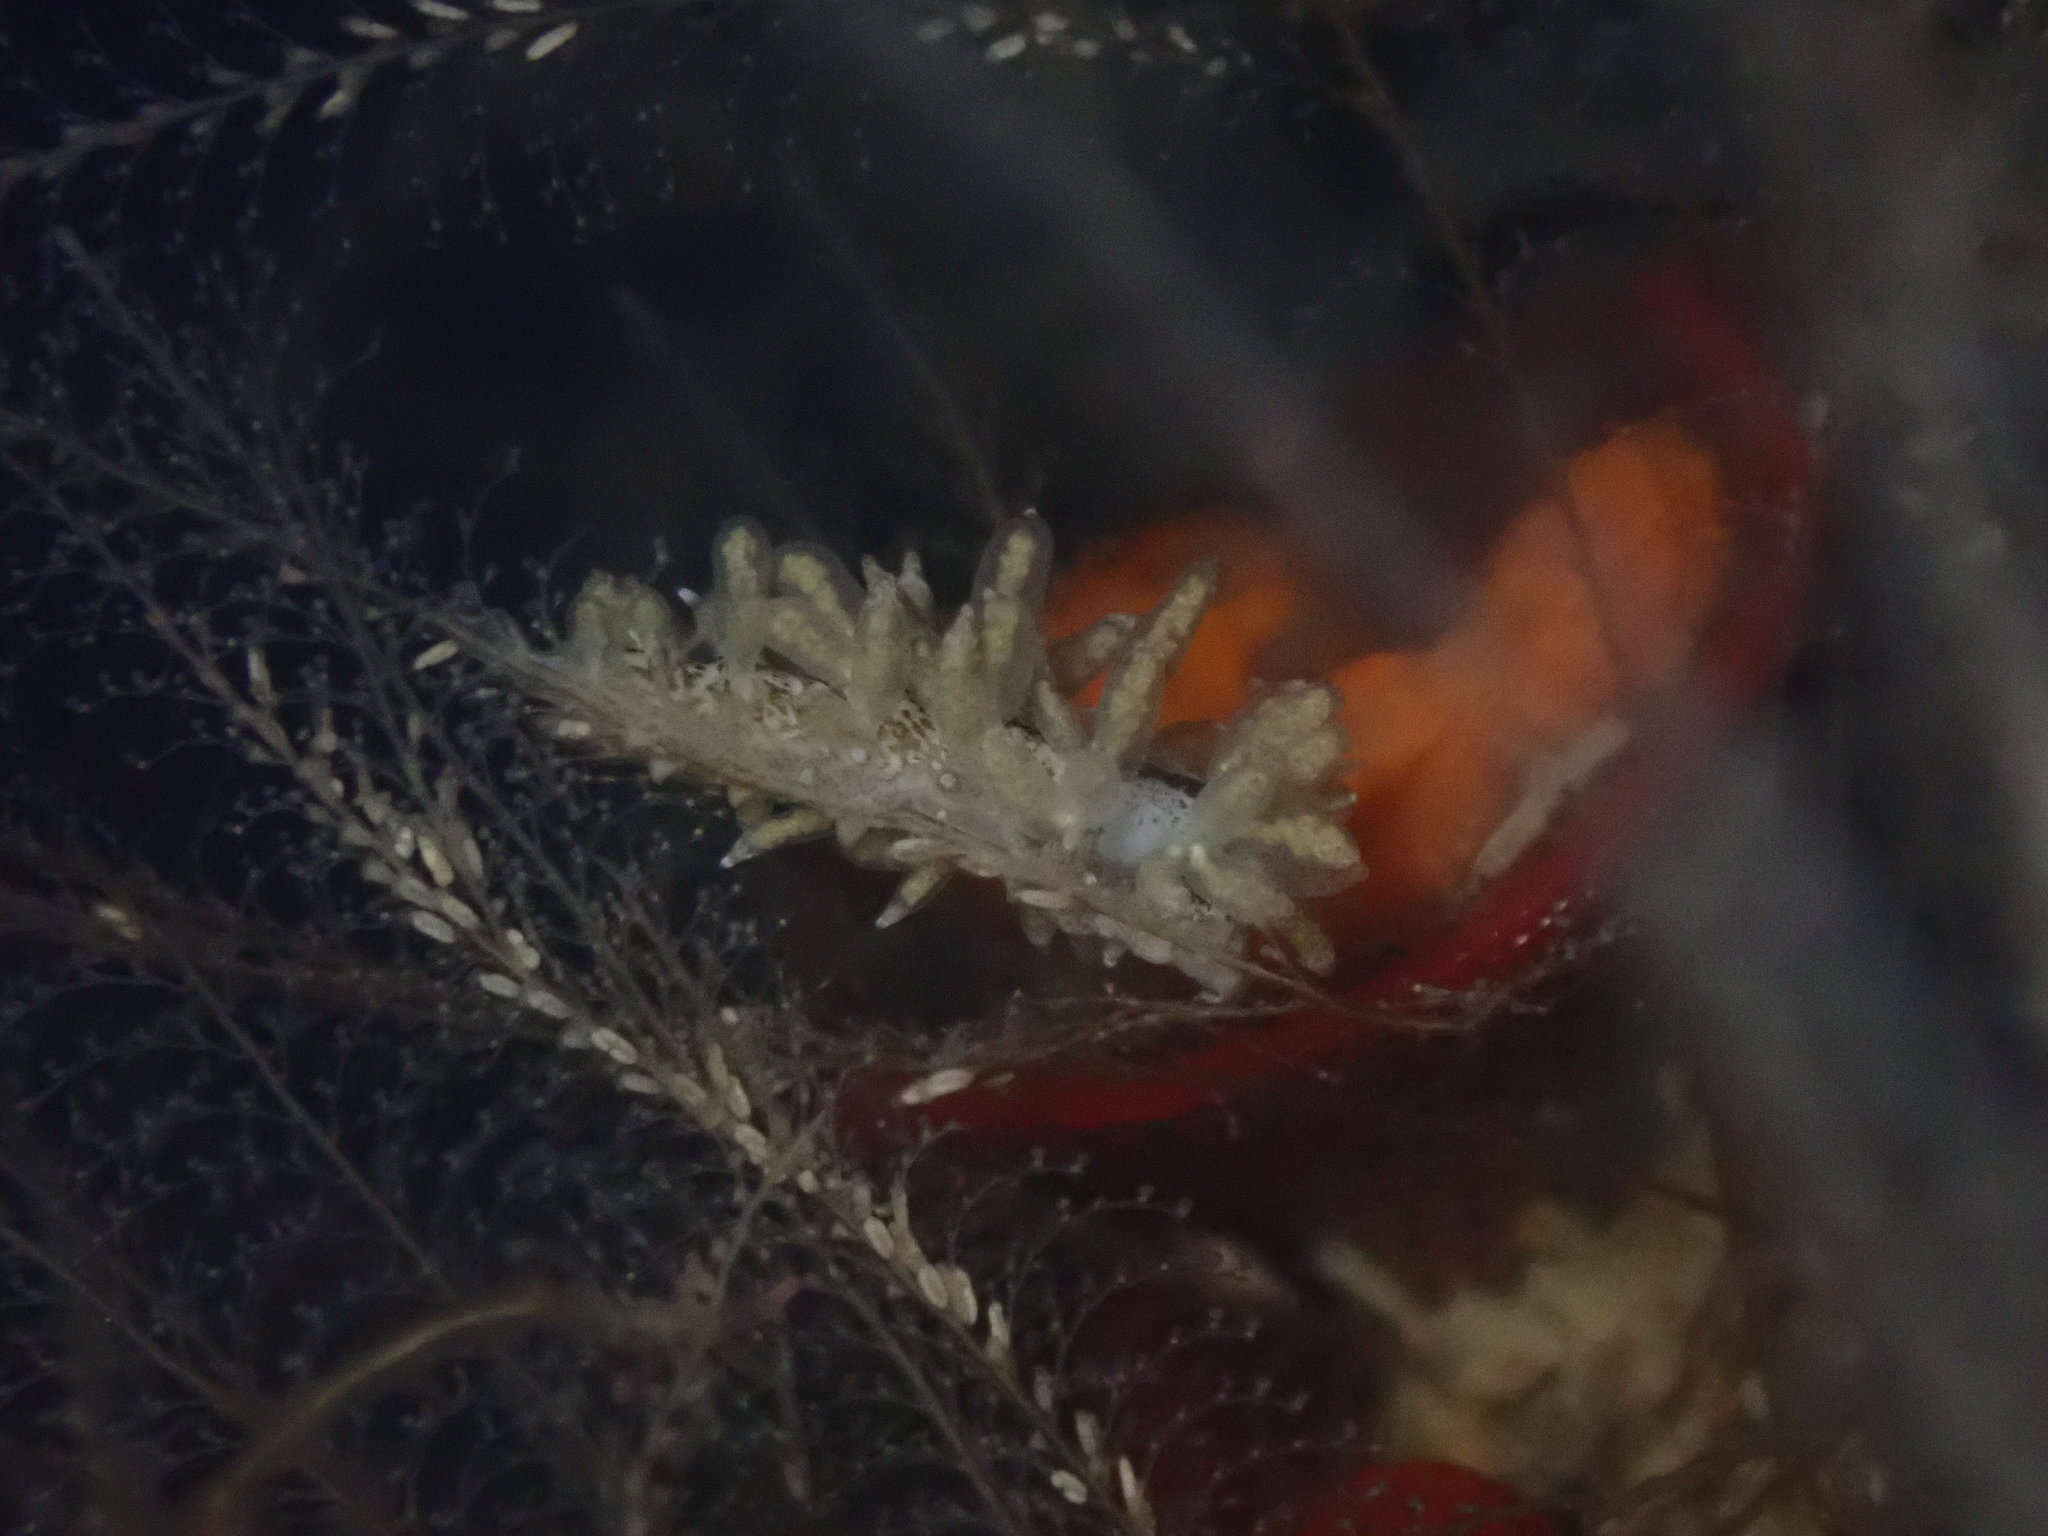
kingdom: Animalia
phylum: Mollusca
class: Gastropoda
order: Nudibranchia
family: Eubranchidae
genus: Eubranchus
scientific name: Eubranchus rustyus
